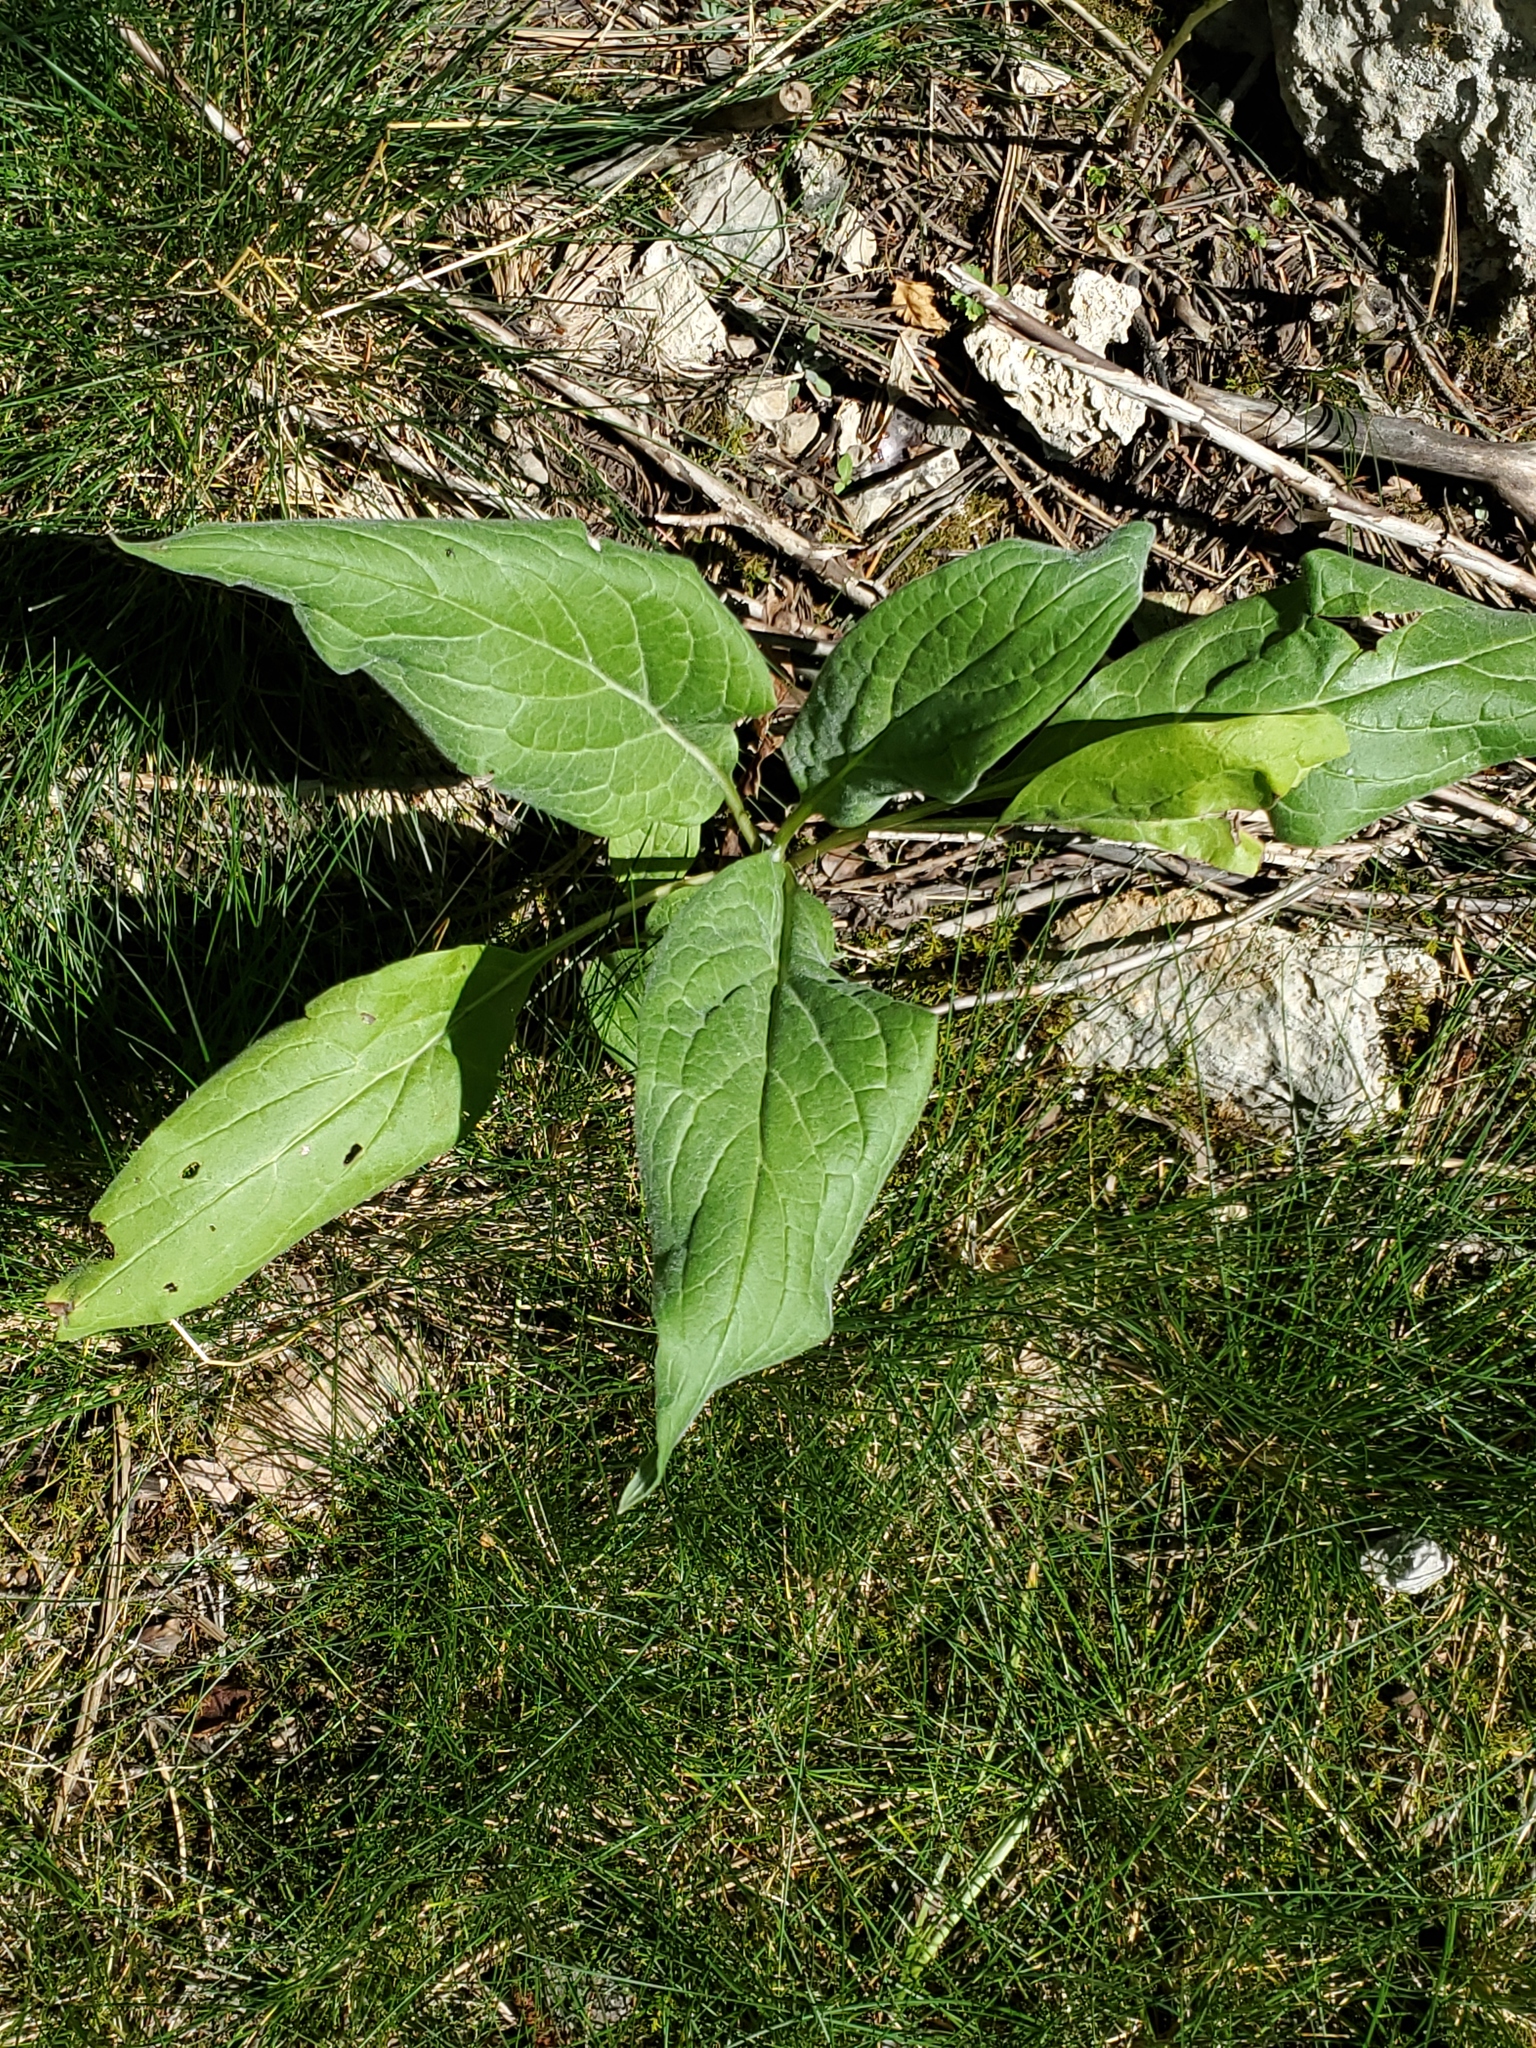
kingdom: Plantae
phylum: Tracheophyta
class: Magnoliopsida
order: Boraginales
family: Boraginaceae
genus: Cynoglossum
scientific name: Cynoglossum officinale
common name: Hound's-tongue
